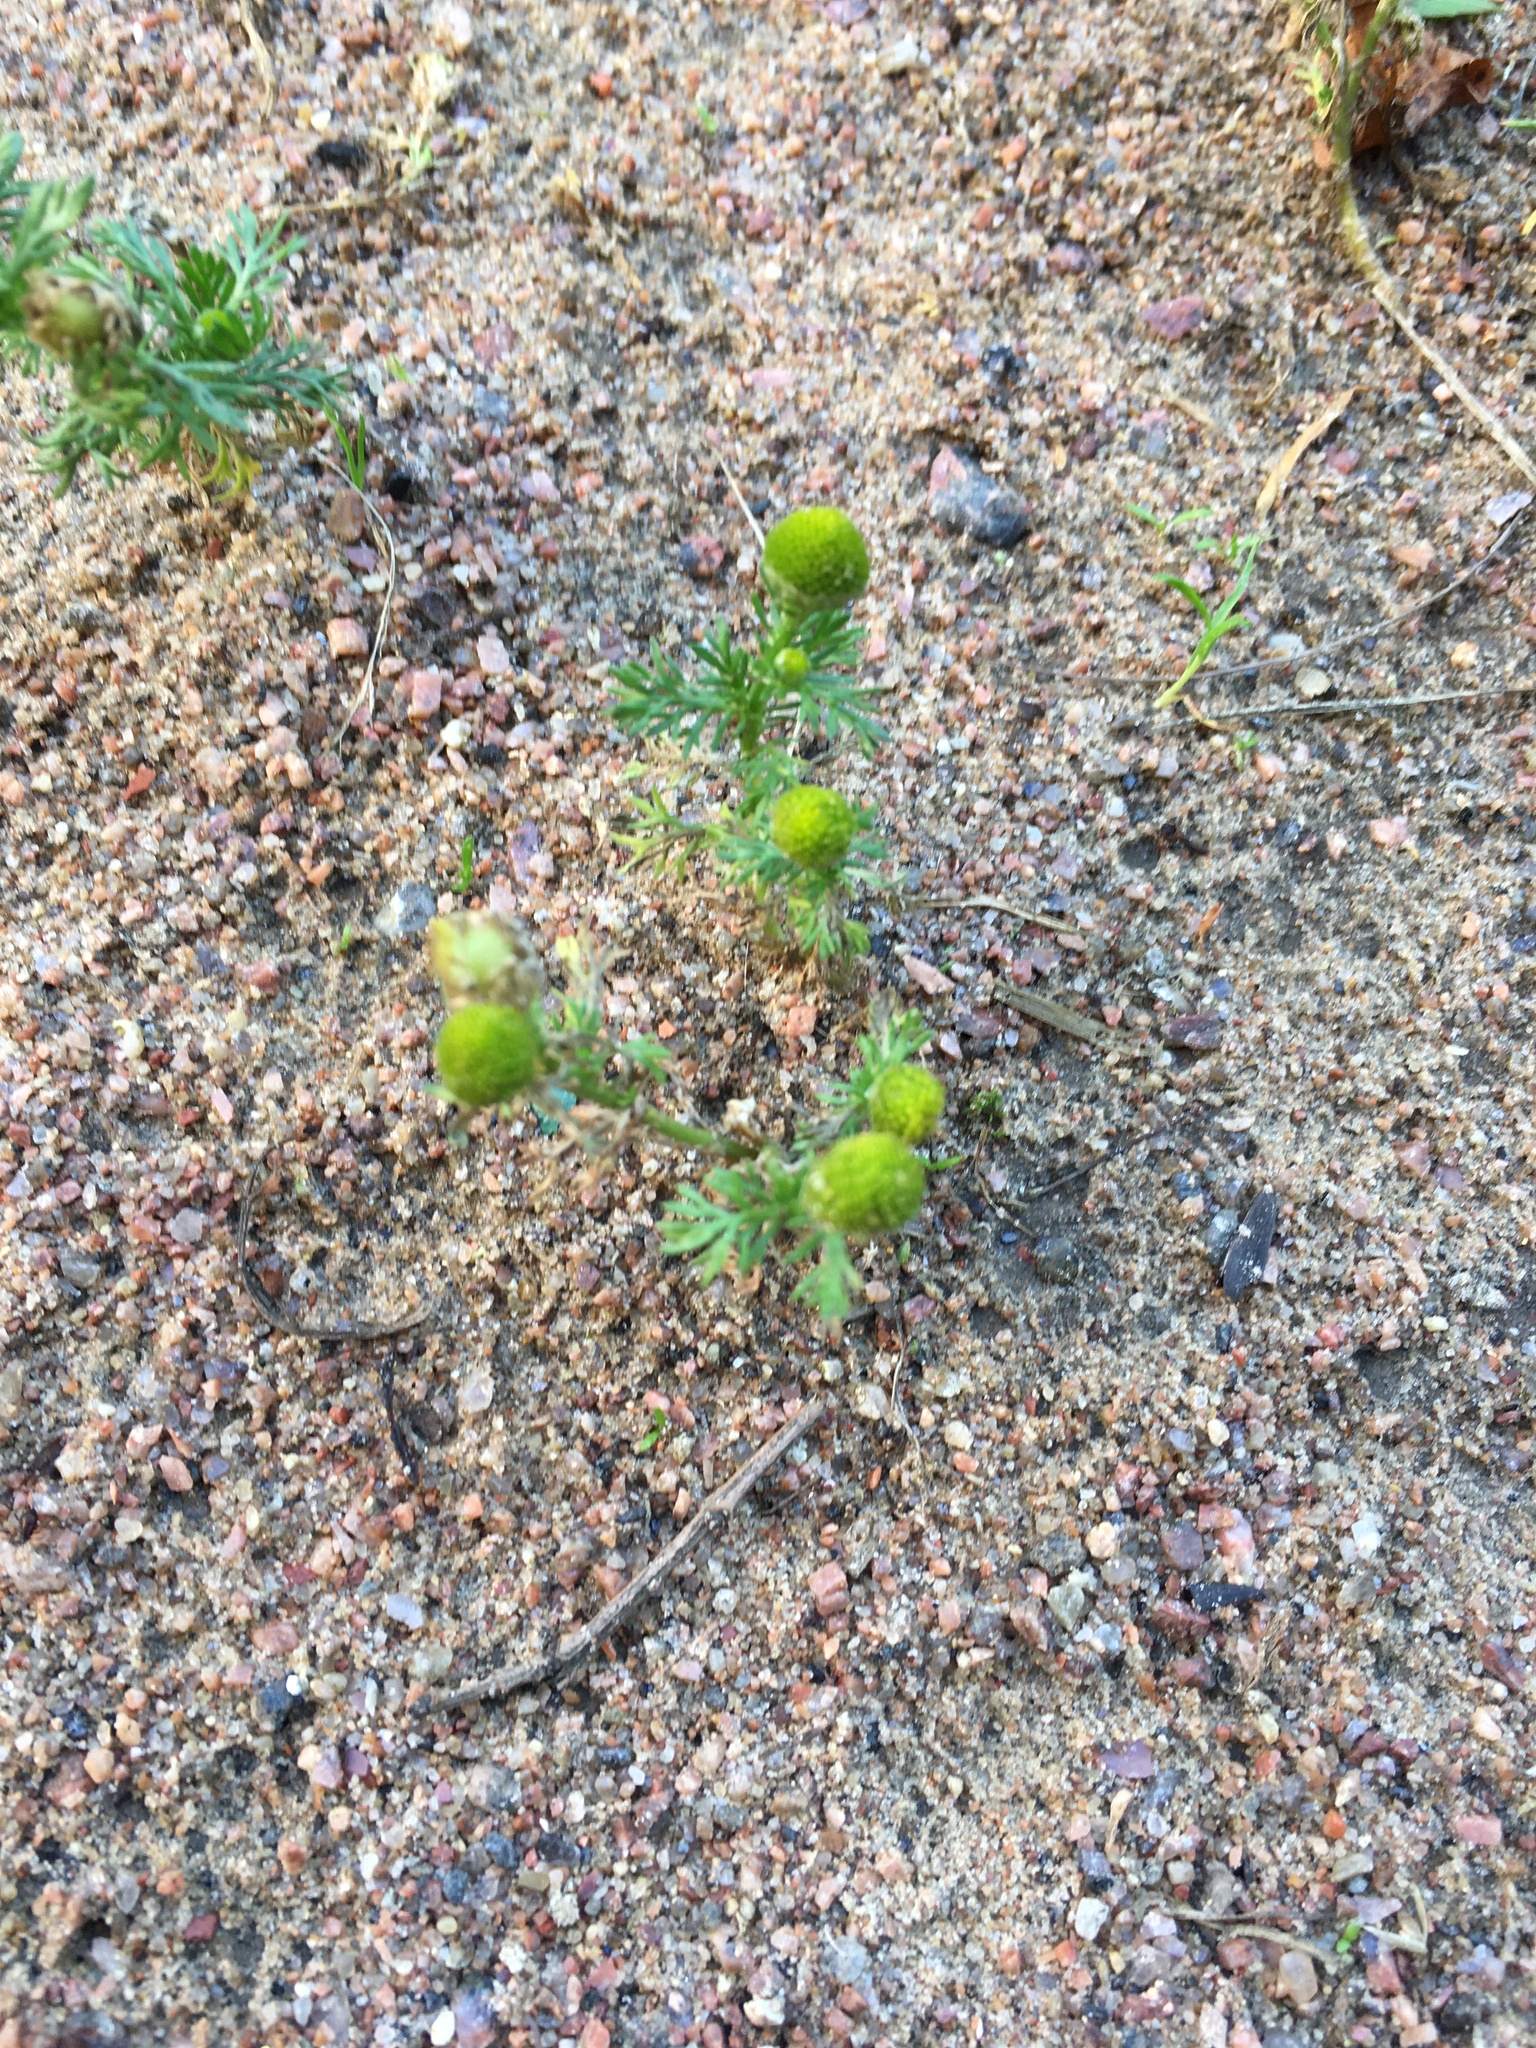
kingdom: Plantae
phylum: Tracheophyta
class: Magnoliopsida
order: Asterales
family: Asteraceae
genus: Matricaria
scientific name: Matricaria discoidea
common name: Disc mayweed
